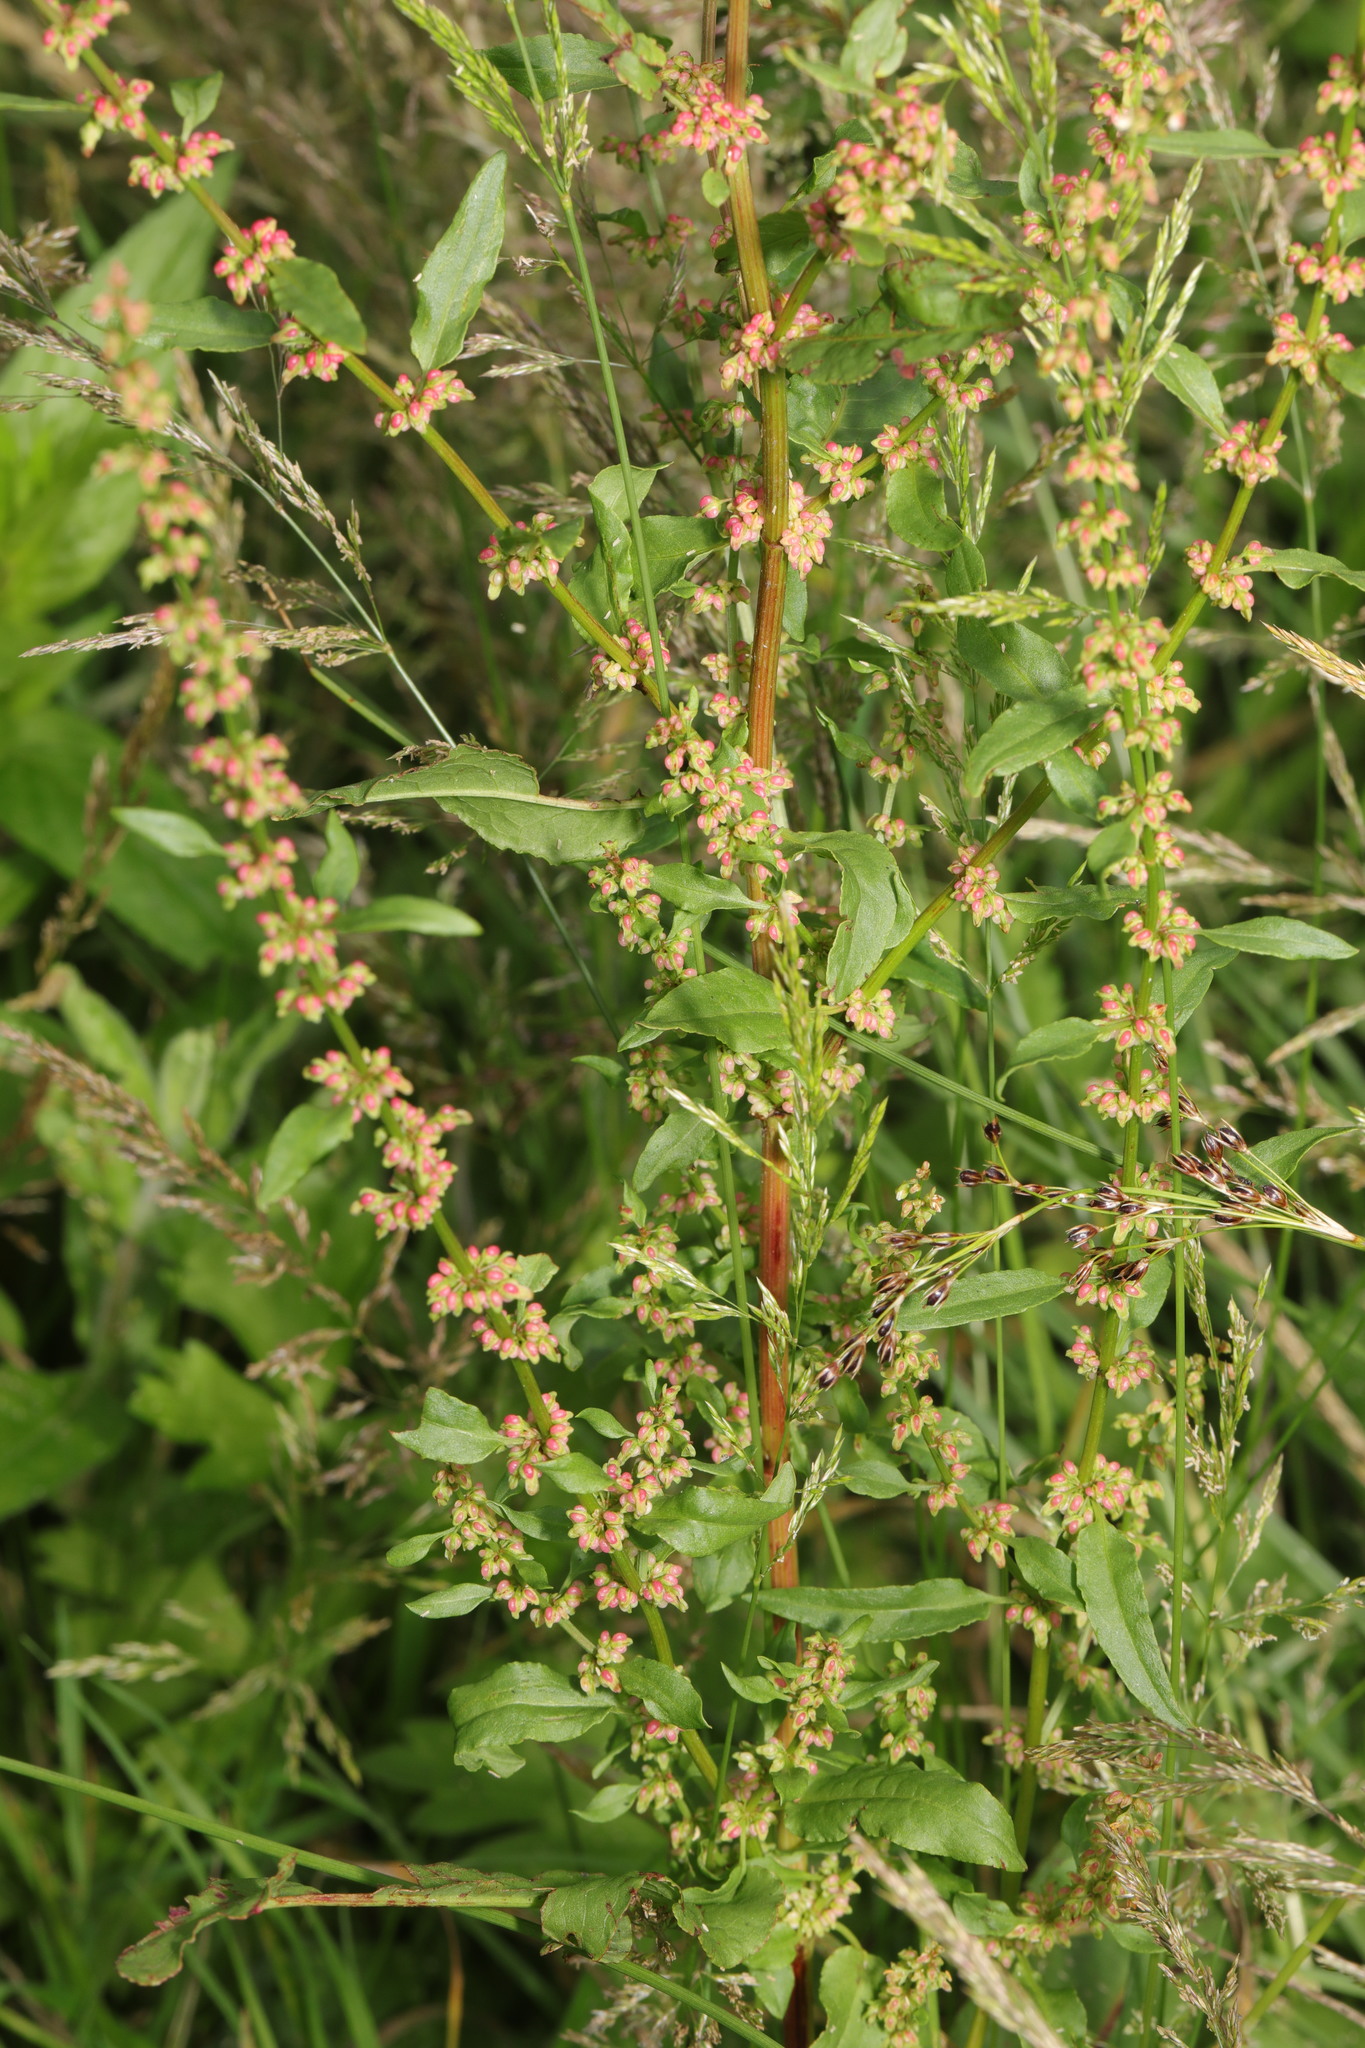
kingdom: Plantae
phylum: Tracheophyta
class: Magnoliopsida
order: Caryophyllales
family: Polygonaceae
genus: Rumex
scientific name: Rumex conglomeratus
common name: Clustered dock
